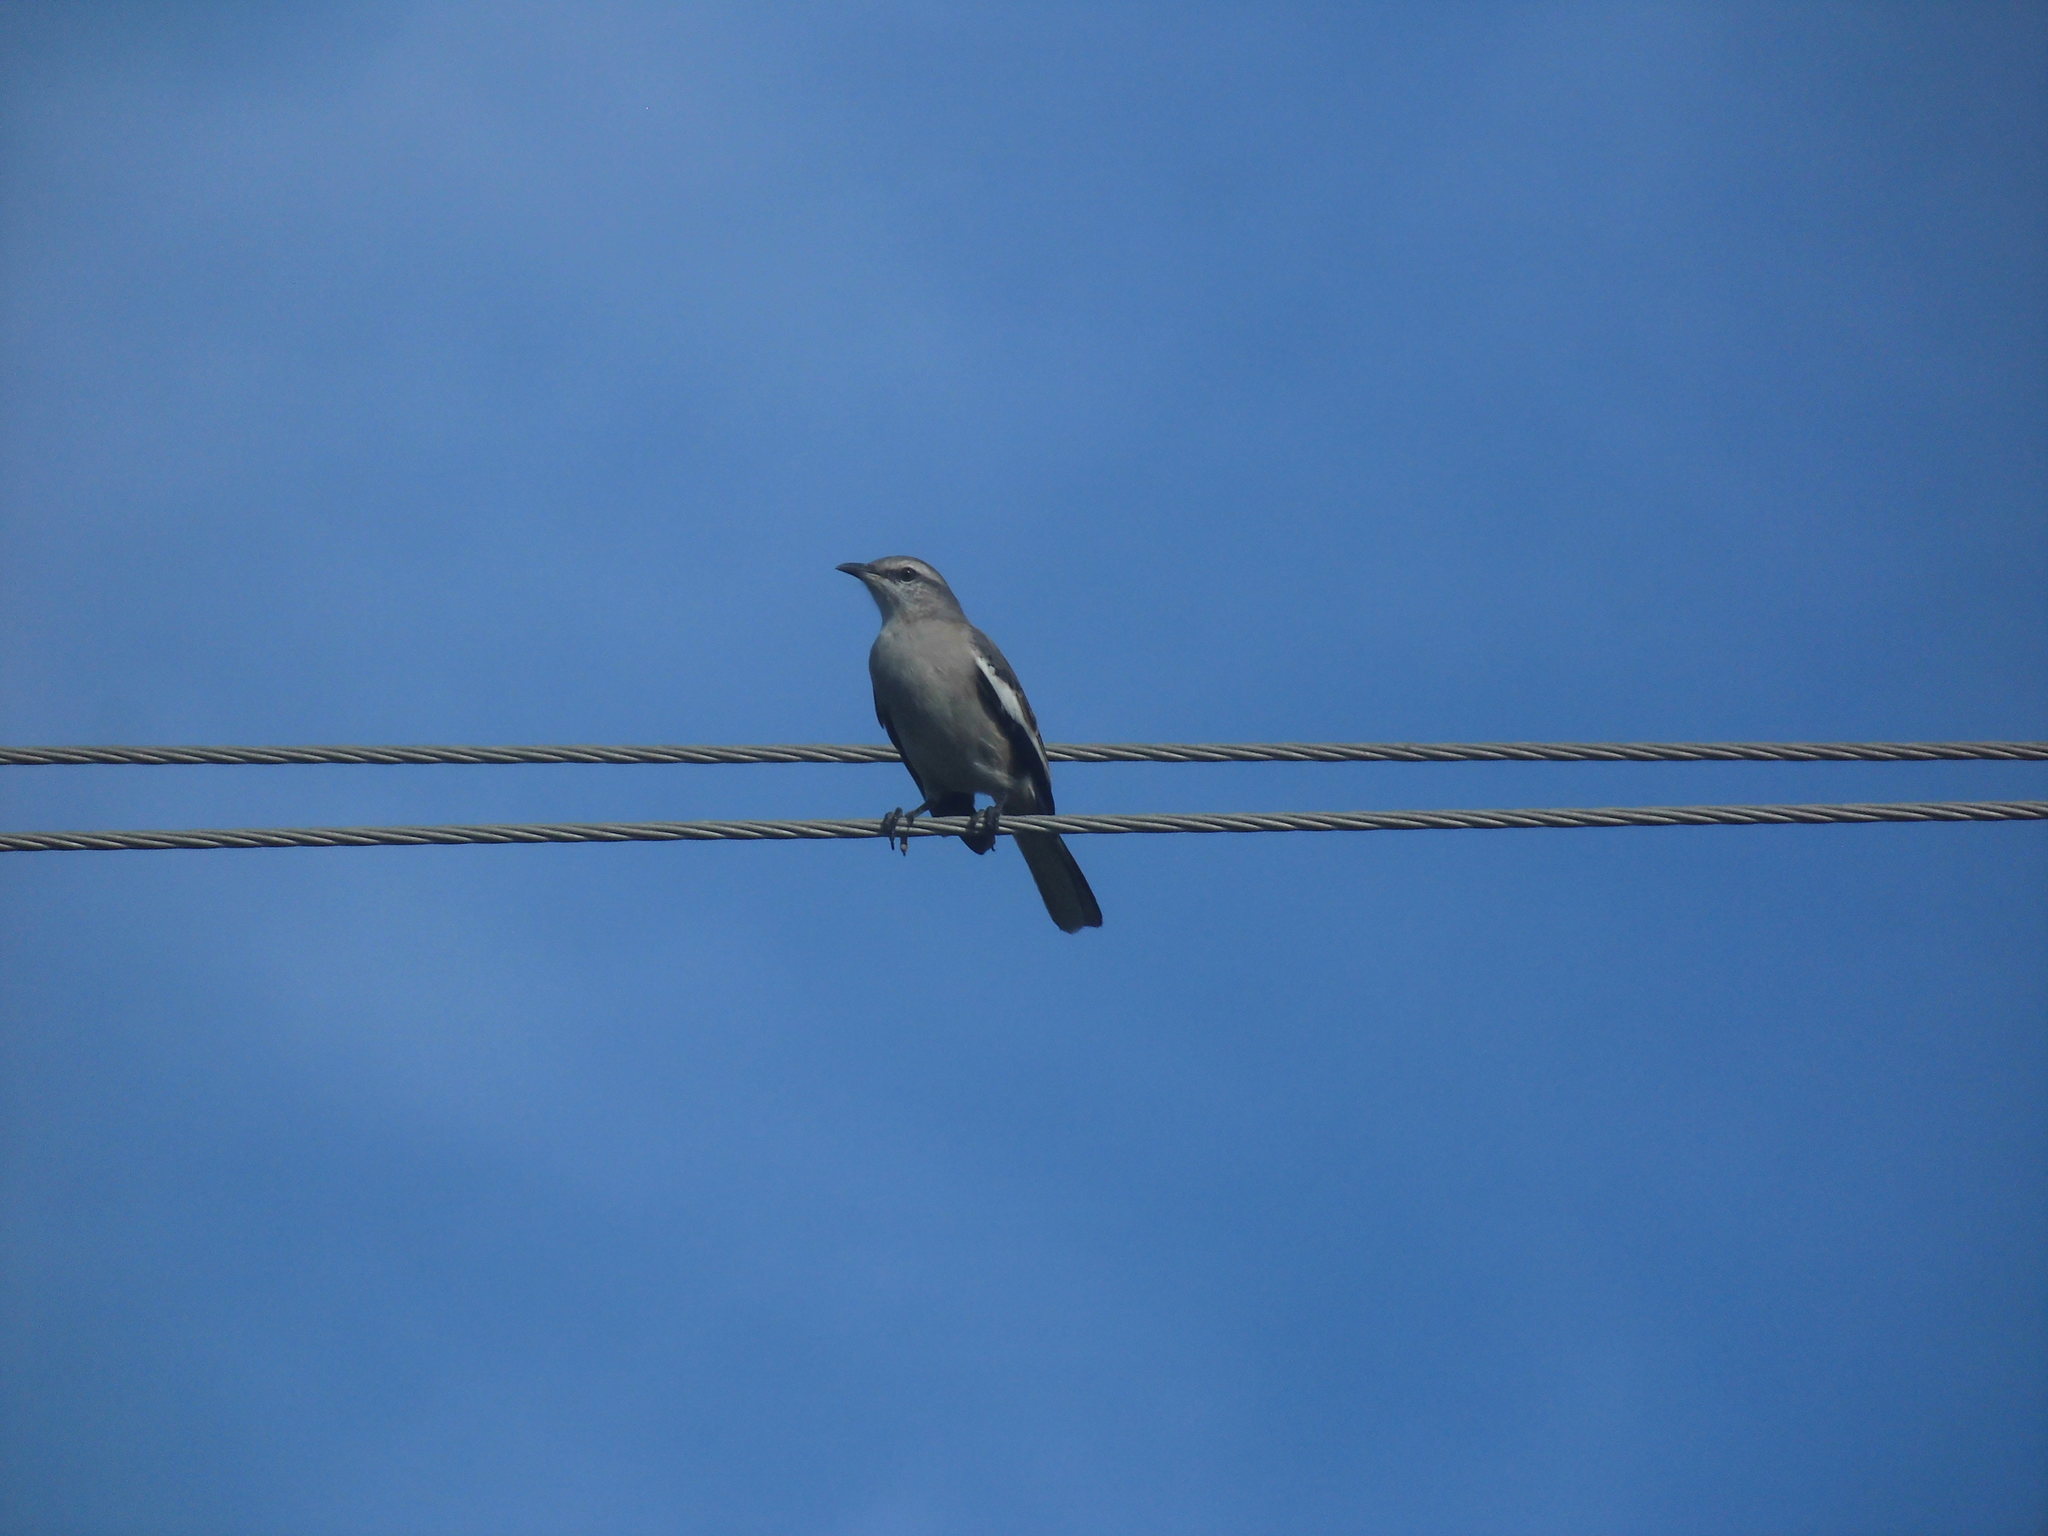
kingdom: Animalia
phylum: Chordata
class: Aves
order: Passeriformes
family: Mimidae
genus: Mimus
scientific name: Mimus triurus
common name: White-banded mockingbird
